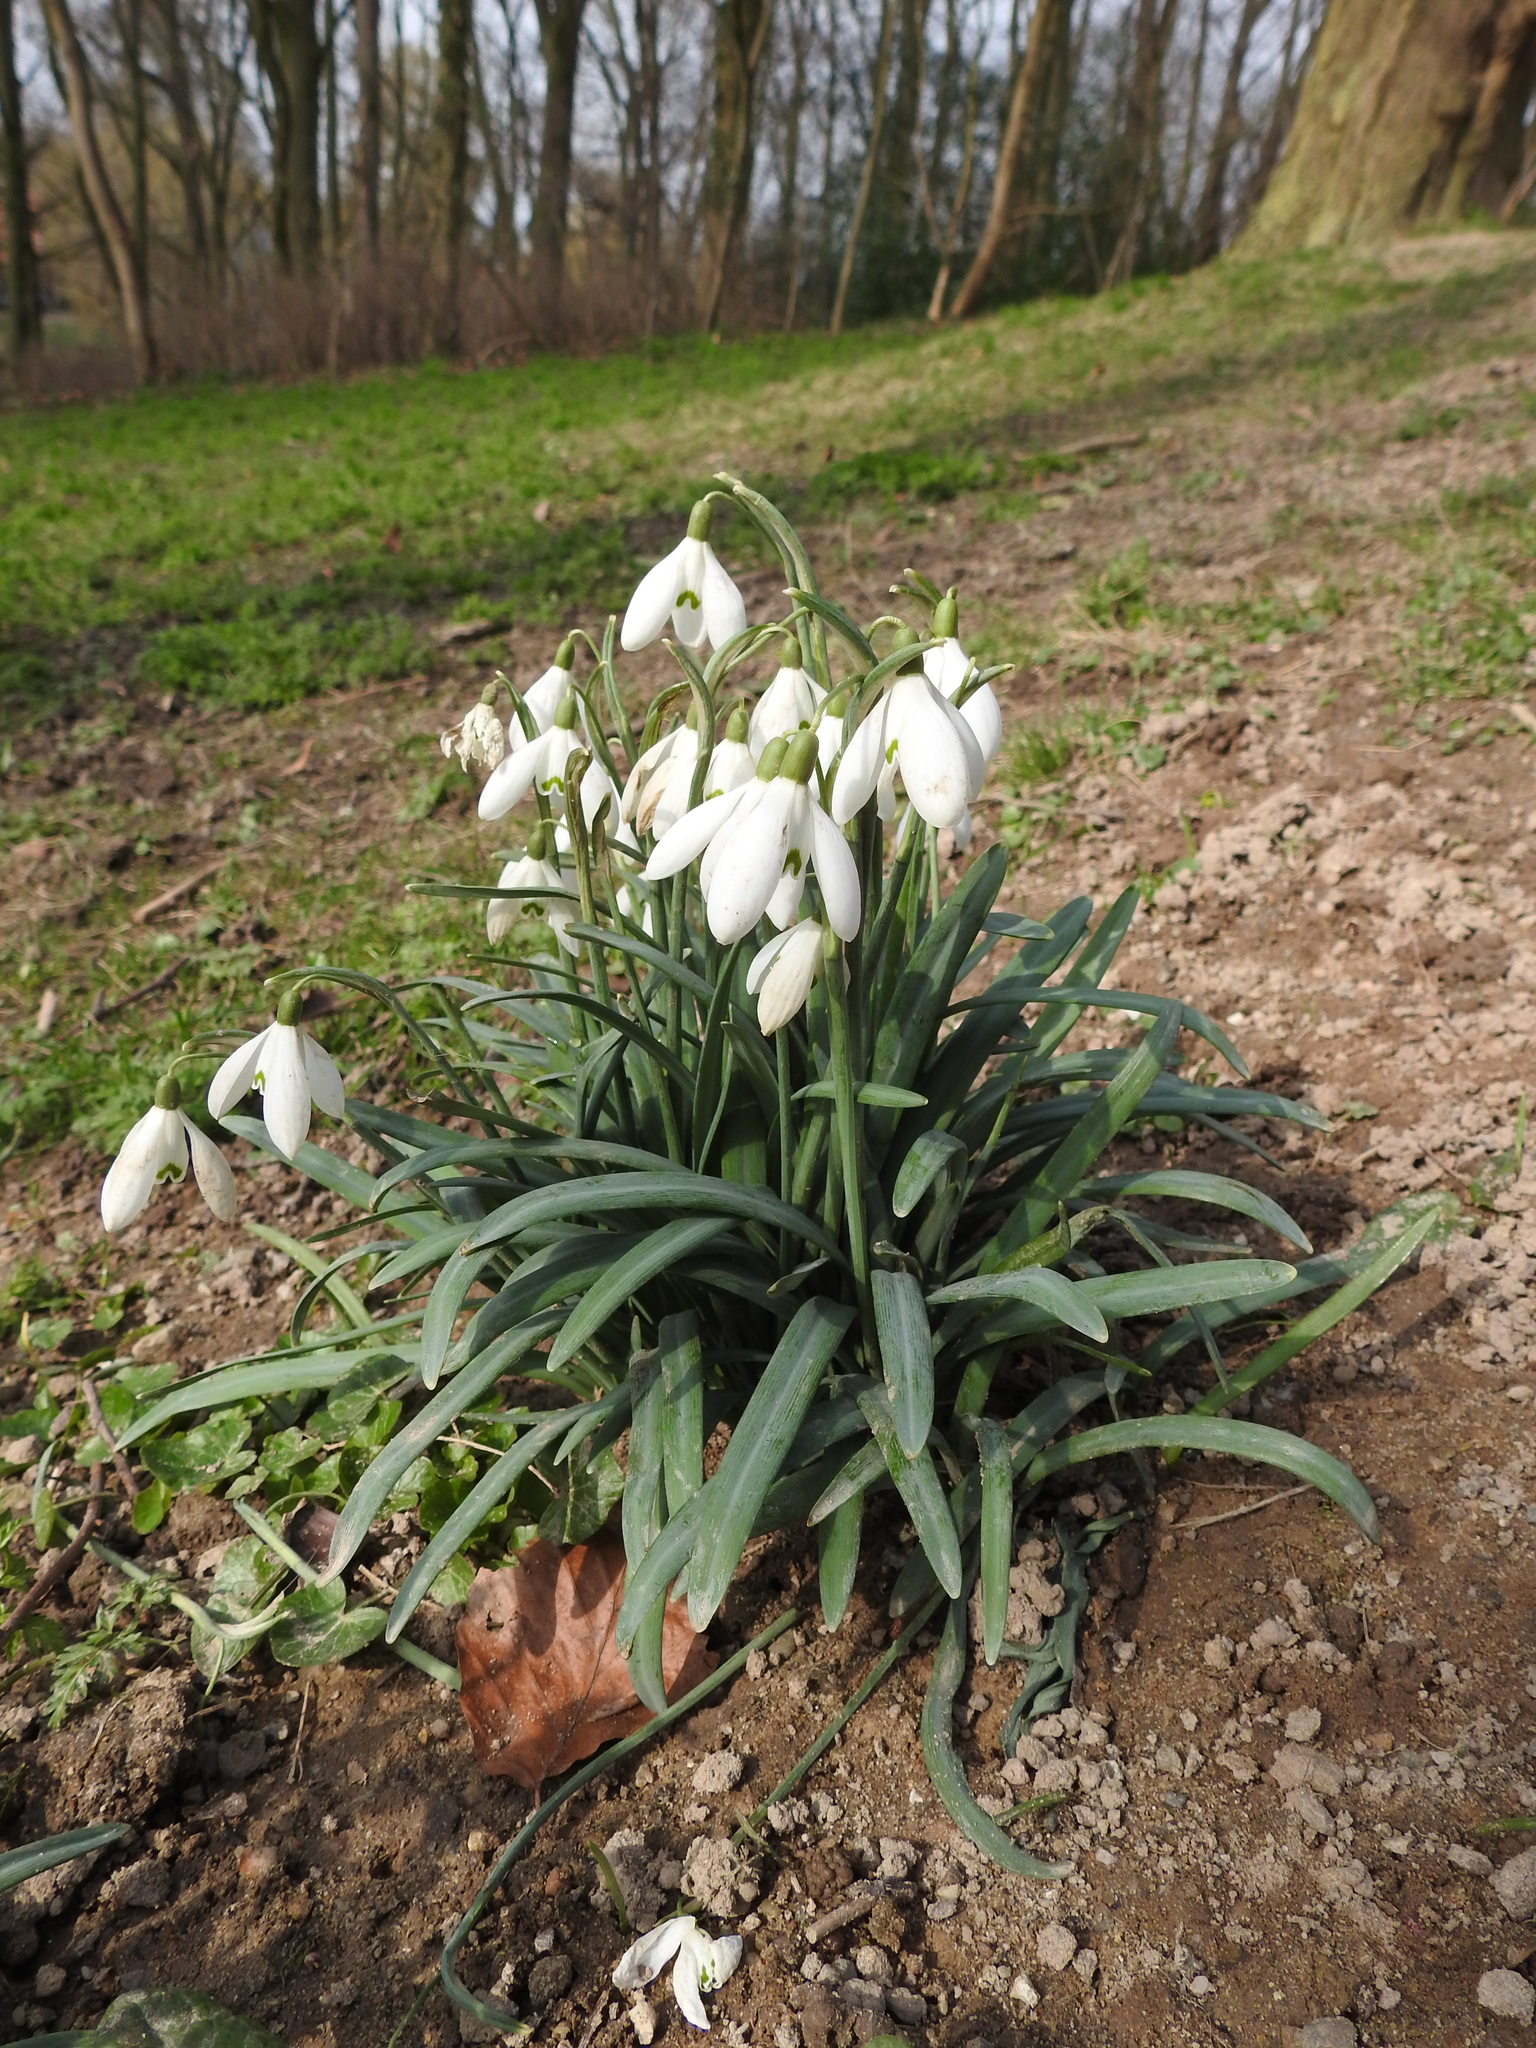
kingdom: Plantae
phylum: Tracheophyta
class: Liliopsida
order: Asparagales
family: Amaryllidaceae
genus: Galanthus
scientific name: Galanthus nivalis
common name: Snowdrop
